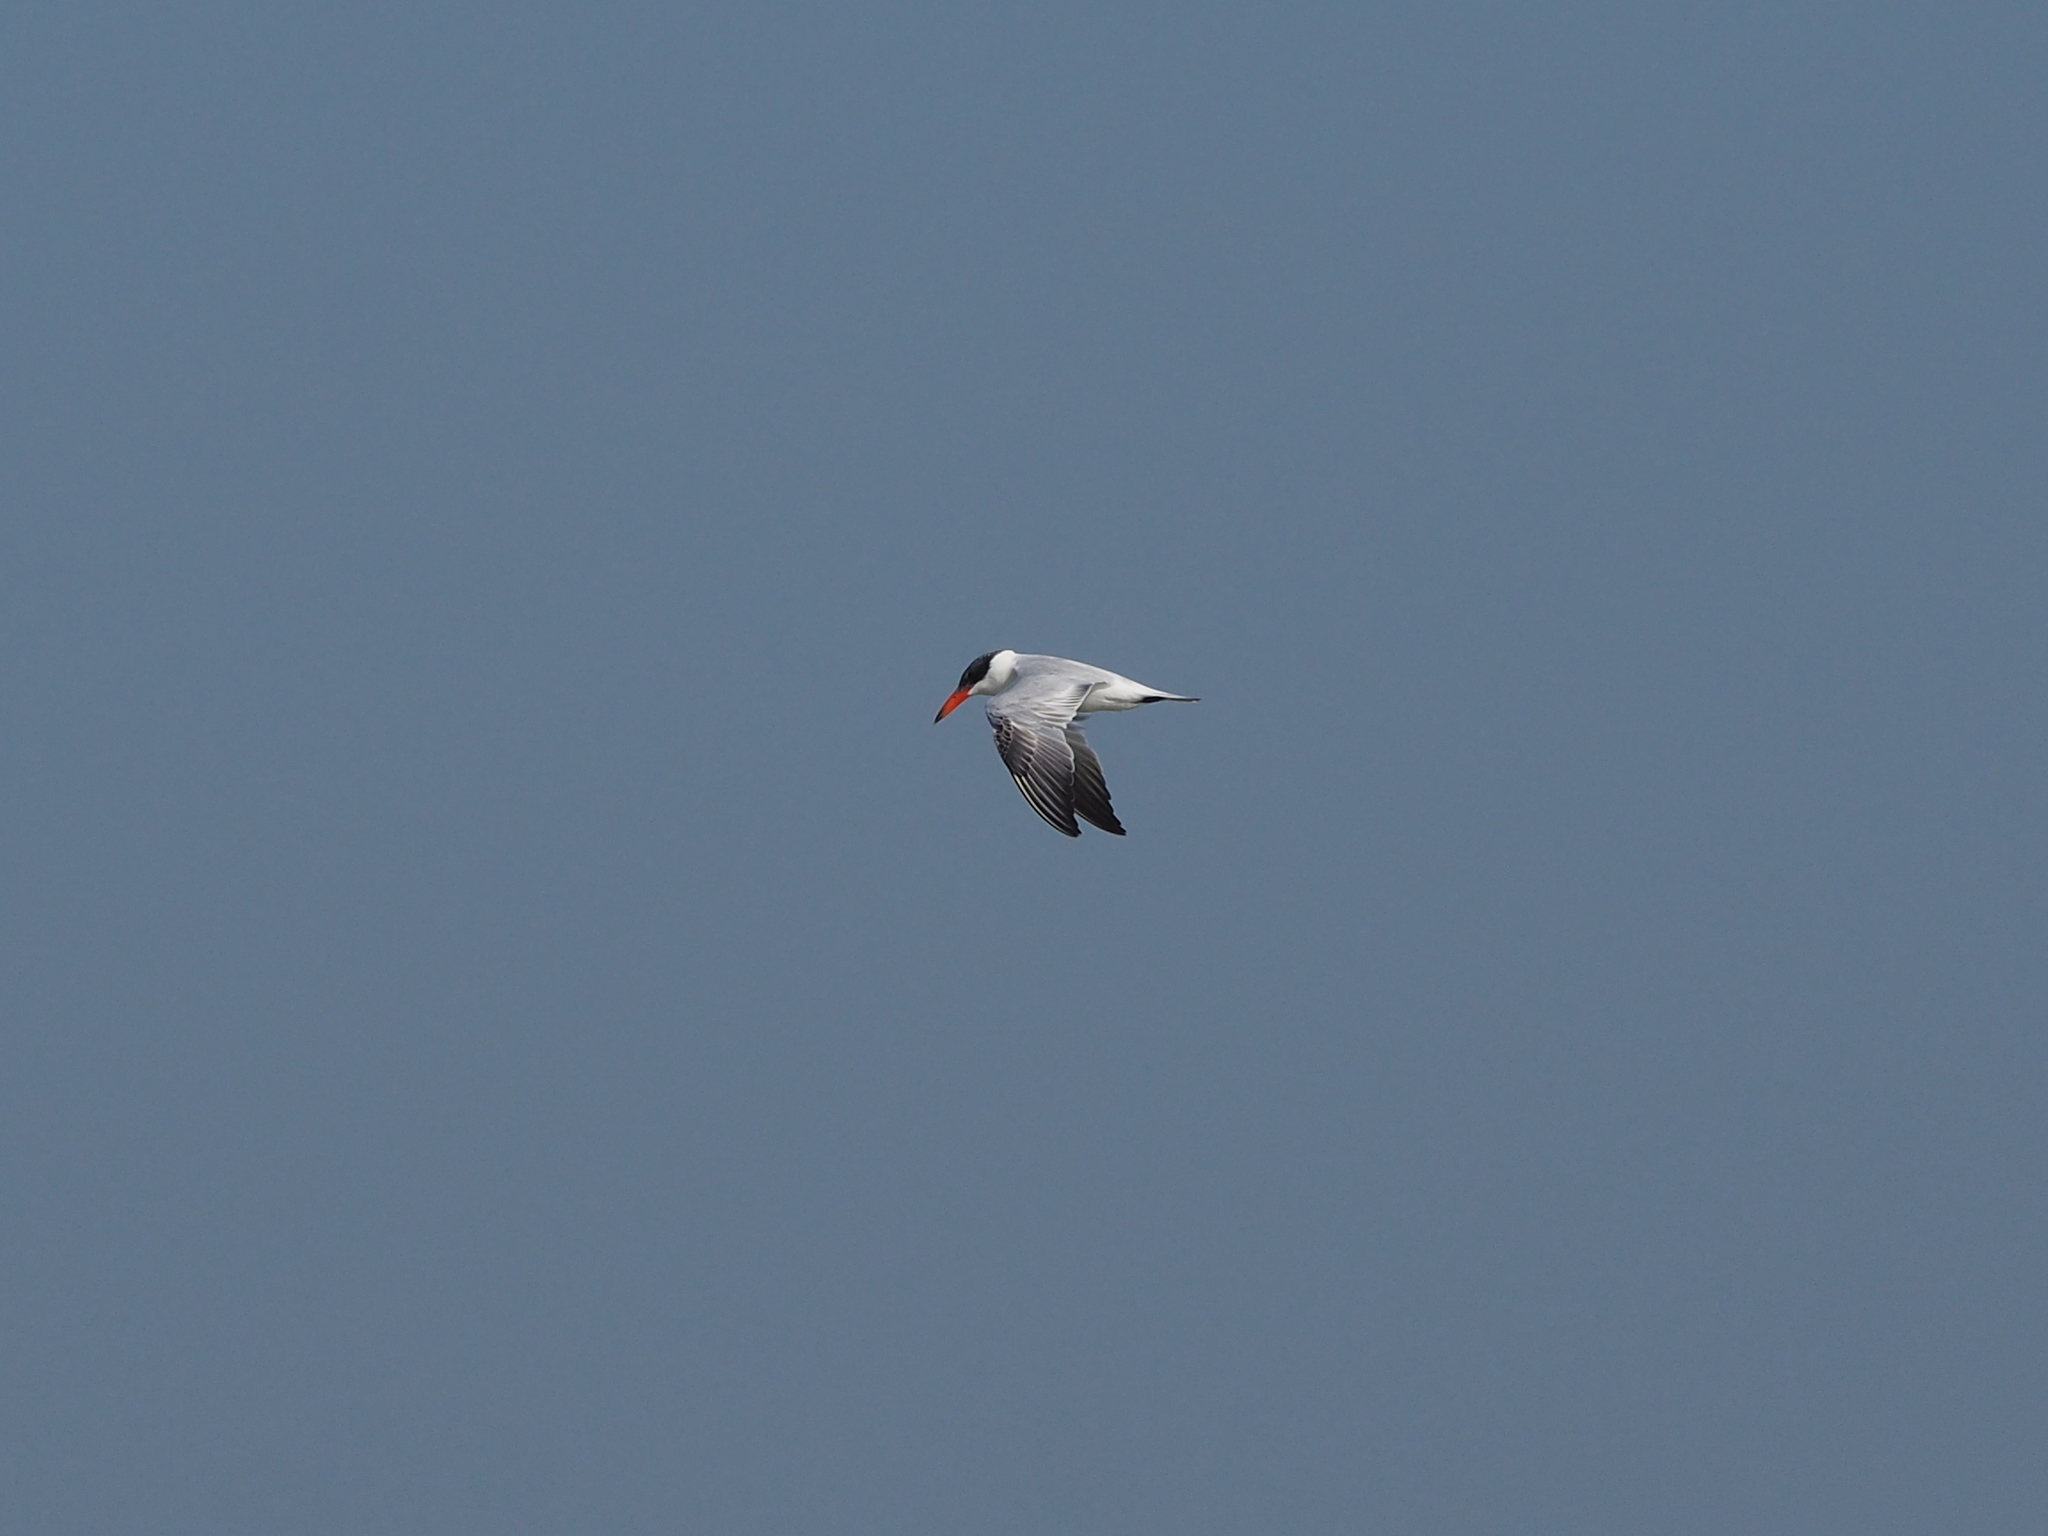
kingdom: Animalia
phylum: Chordata
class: Aves
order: Charadriiformes
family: Laridae
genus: Hydroprogne
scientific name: Hydroprogne caspia
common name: Caspian tern
